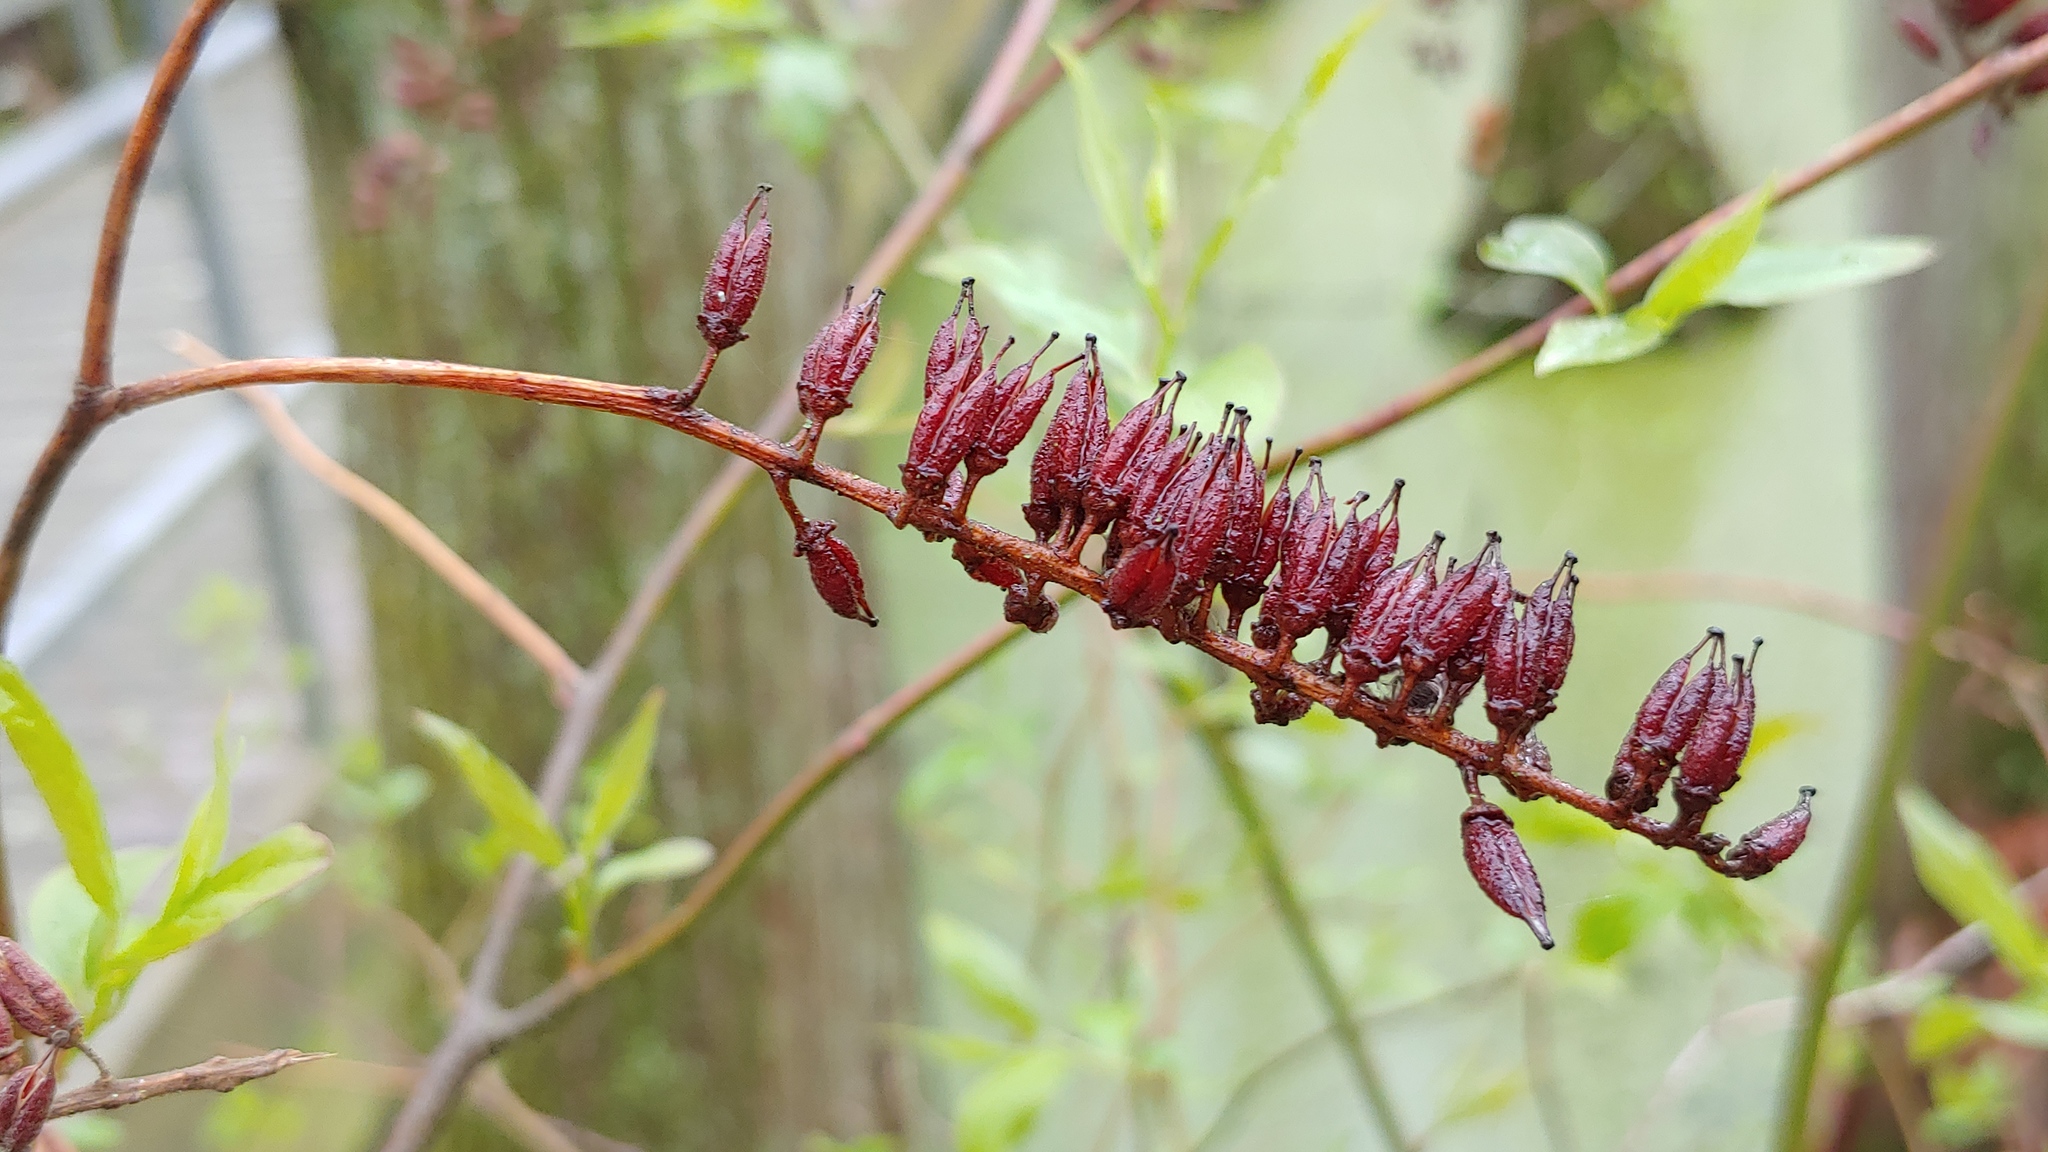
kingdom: Plantae
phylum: Tracheophyta
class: Magnoliopsida
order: Saxifragales
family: Iteaceae
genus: Itea
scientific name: Itea virginica
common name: Sweetspire
